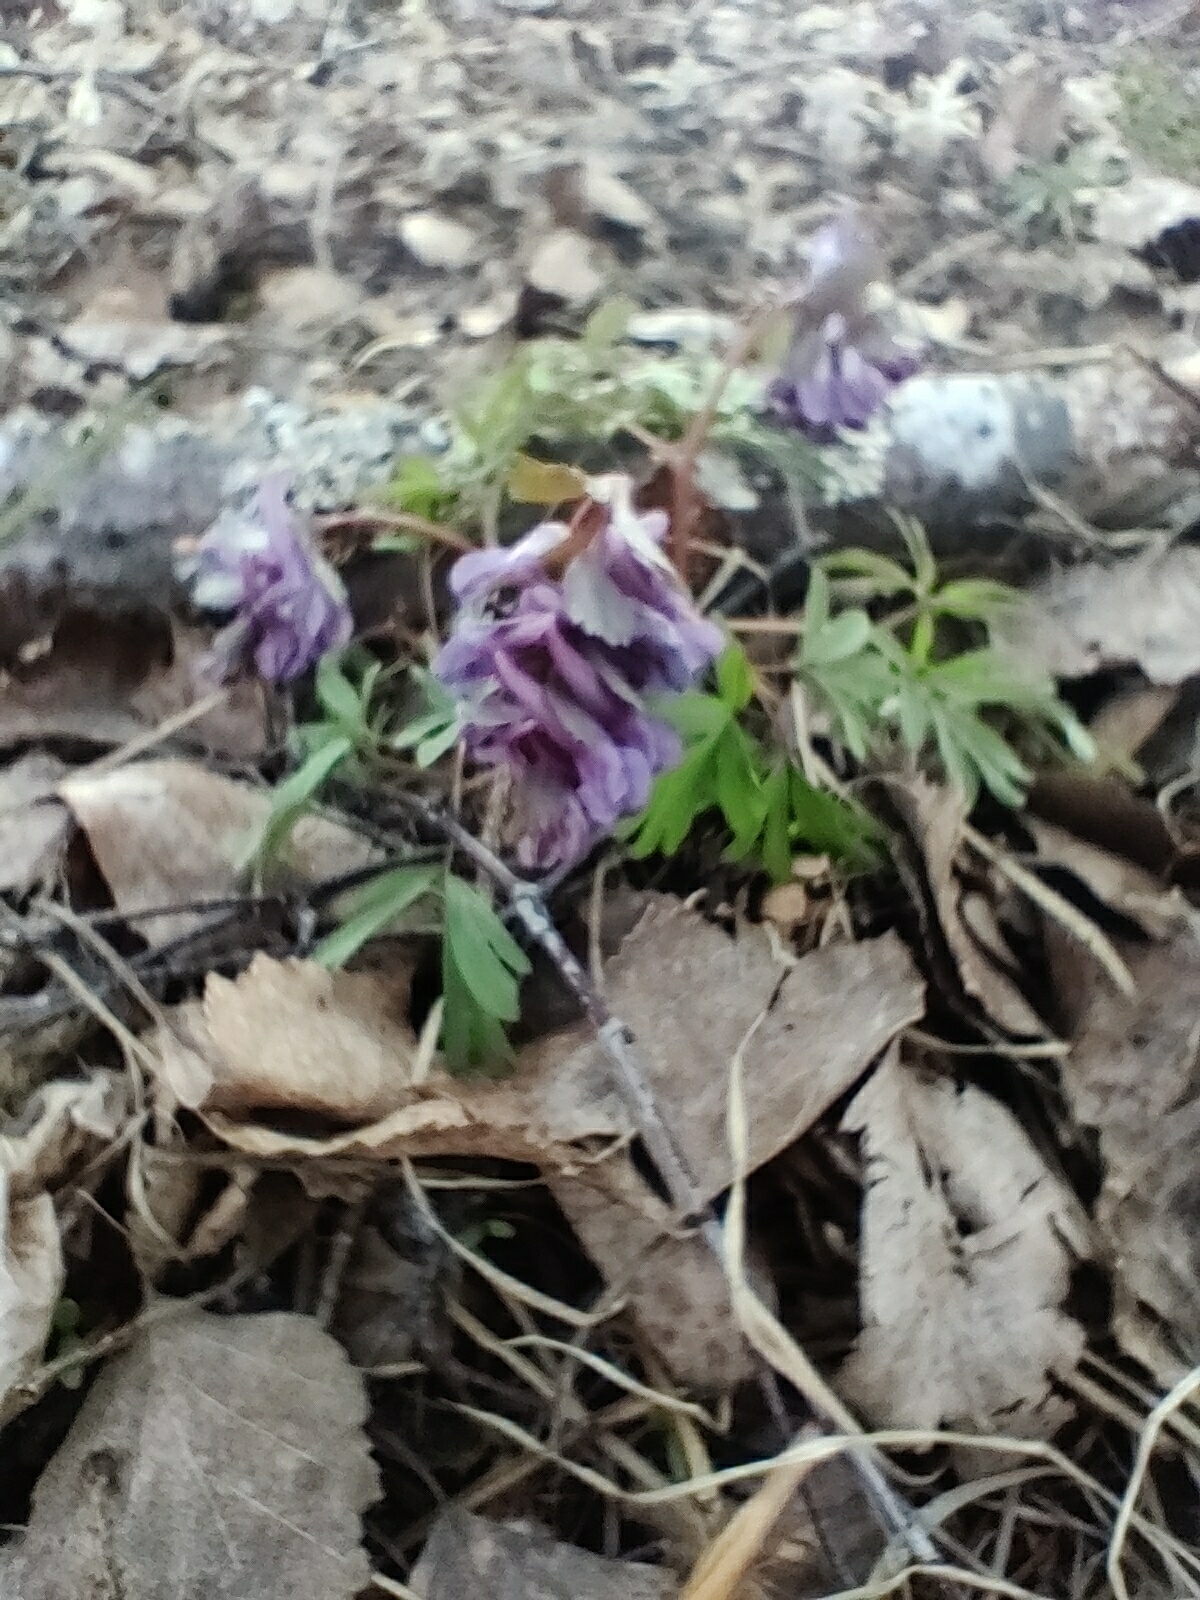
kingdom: Plantae
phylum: Tracheophyta
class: Magnoliopsida
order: Ranunculales
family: Papaveraceae
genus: Corydalis
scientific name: Corydalis solida
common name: Bird-in-a-bush
